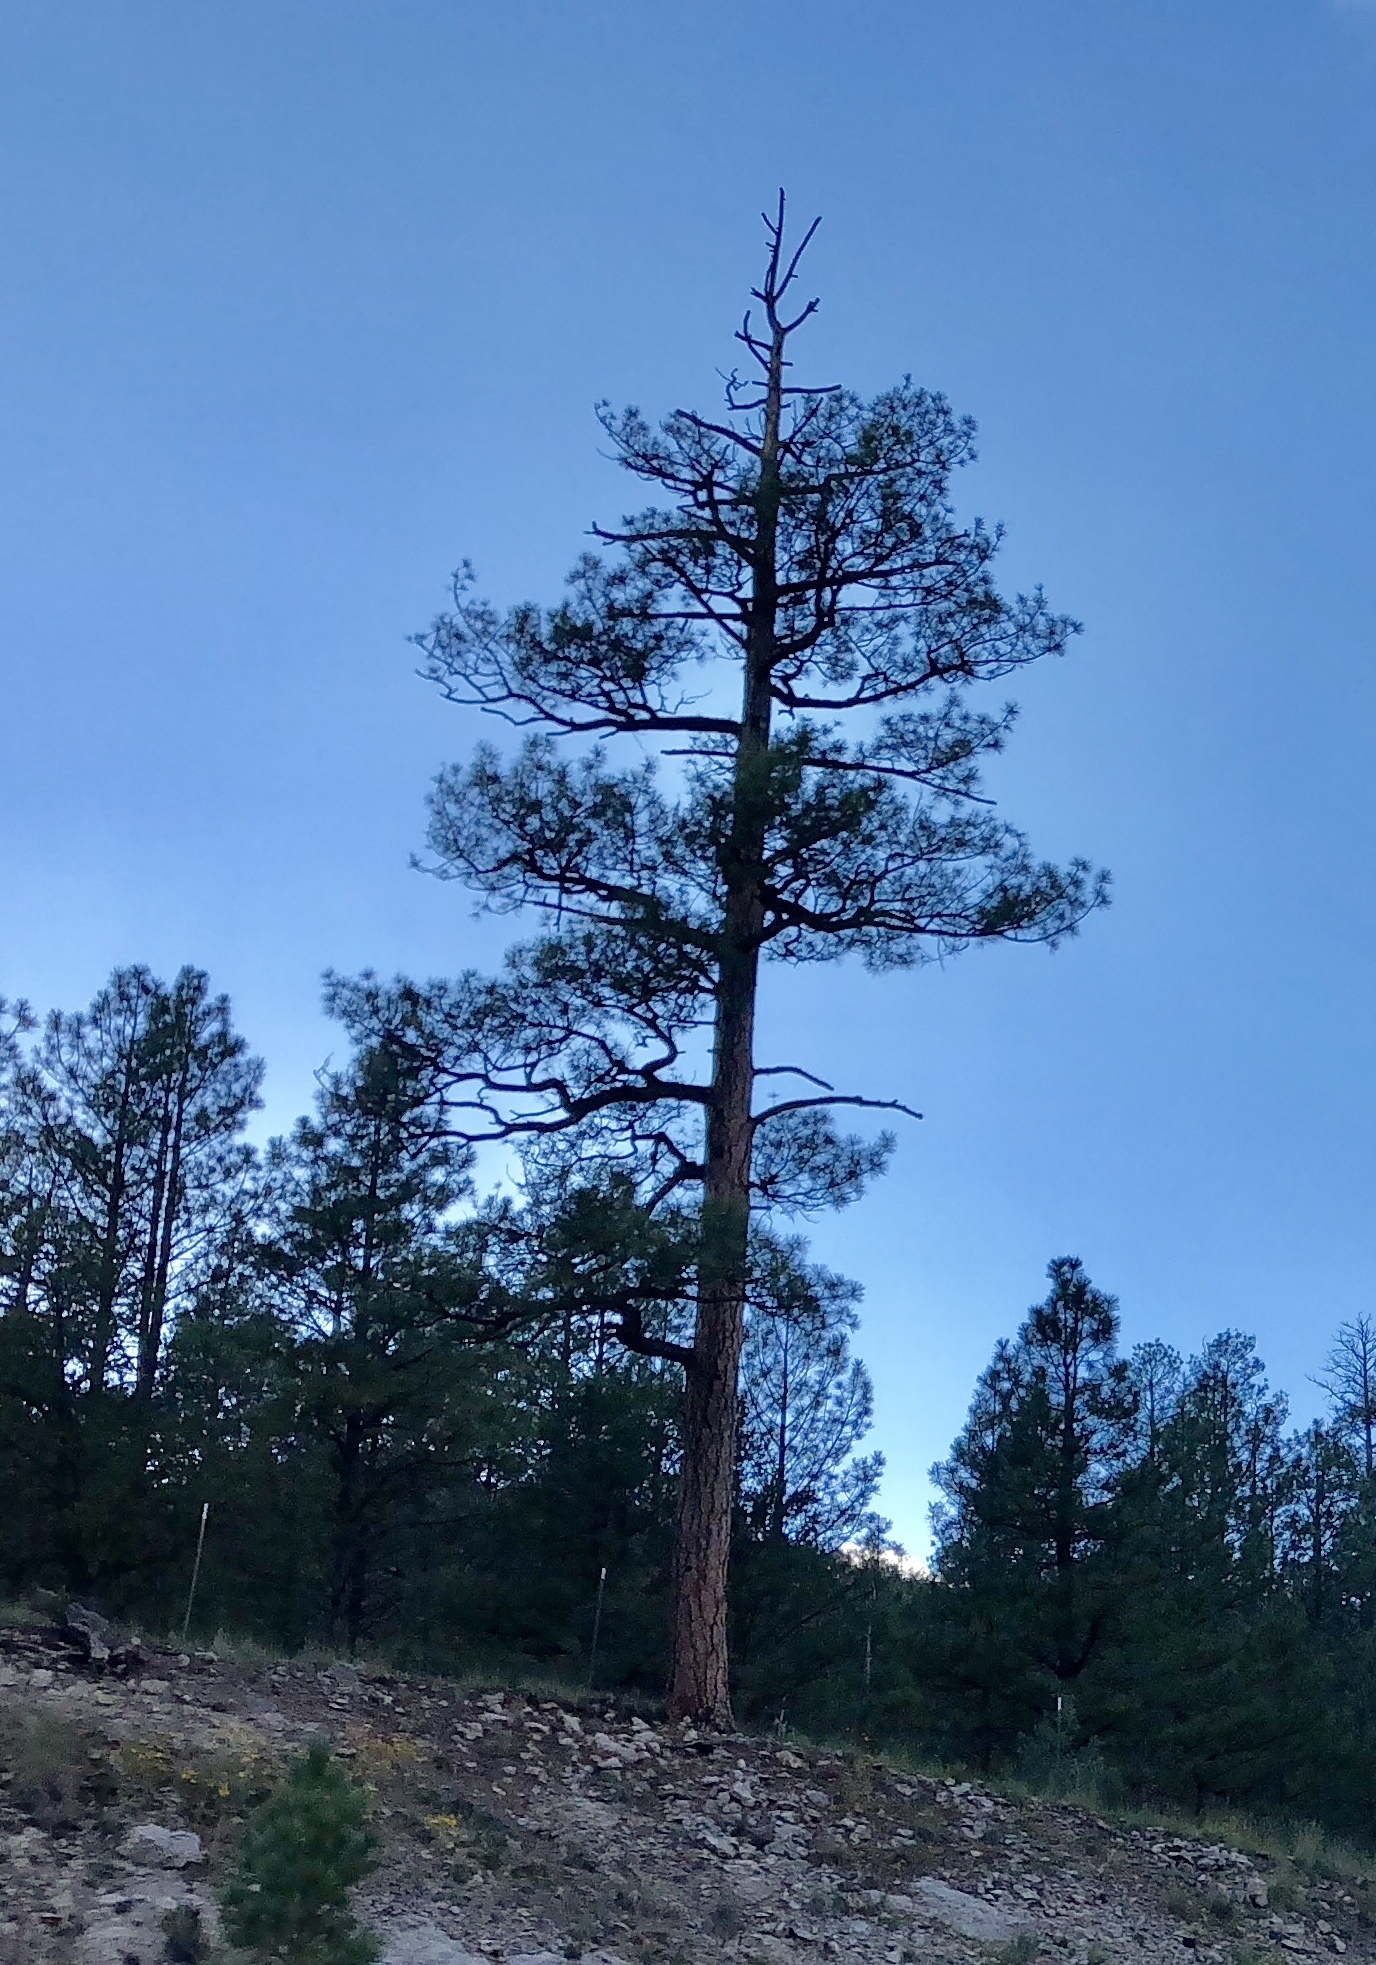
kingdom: Plantae
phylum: Tracheophyta
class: Pinopsida
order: Pinales
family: Pinaceae
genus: Pinus
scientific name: Pinus ponderosa
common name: Western yellow-pine
